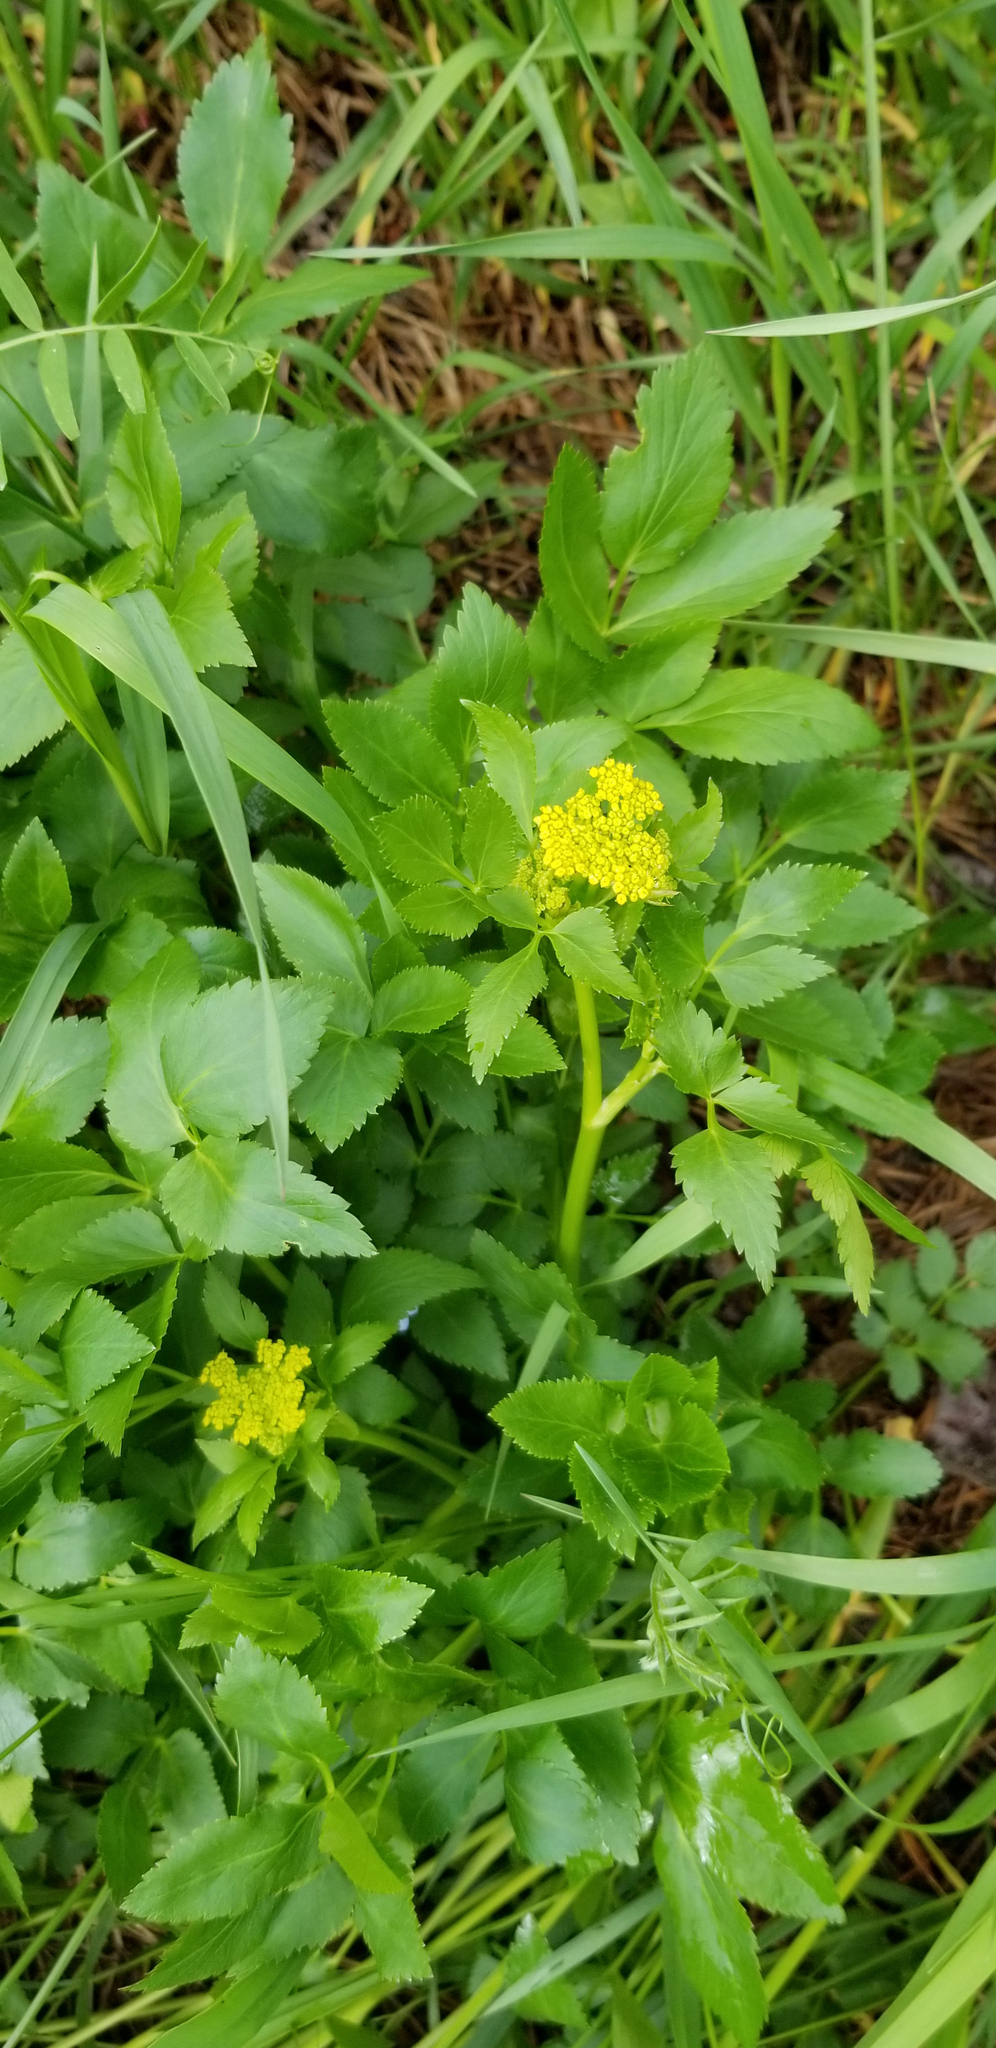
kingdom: Plantae
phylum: Tracheophyta
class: Magnoliopsida
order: Apiales
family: Apiaceae
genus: Zizia
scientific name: Zizia aurea
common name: Golden alexanders
